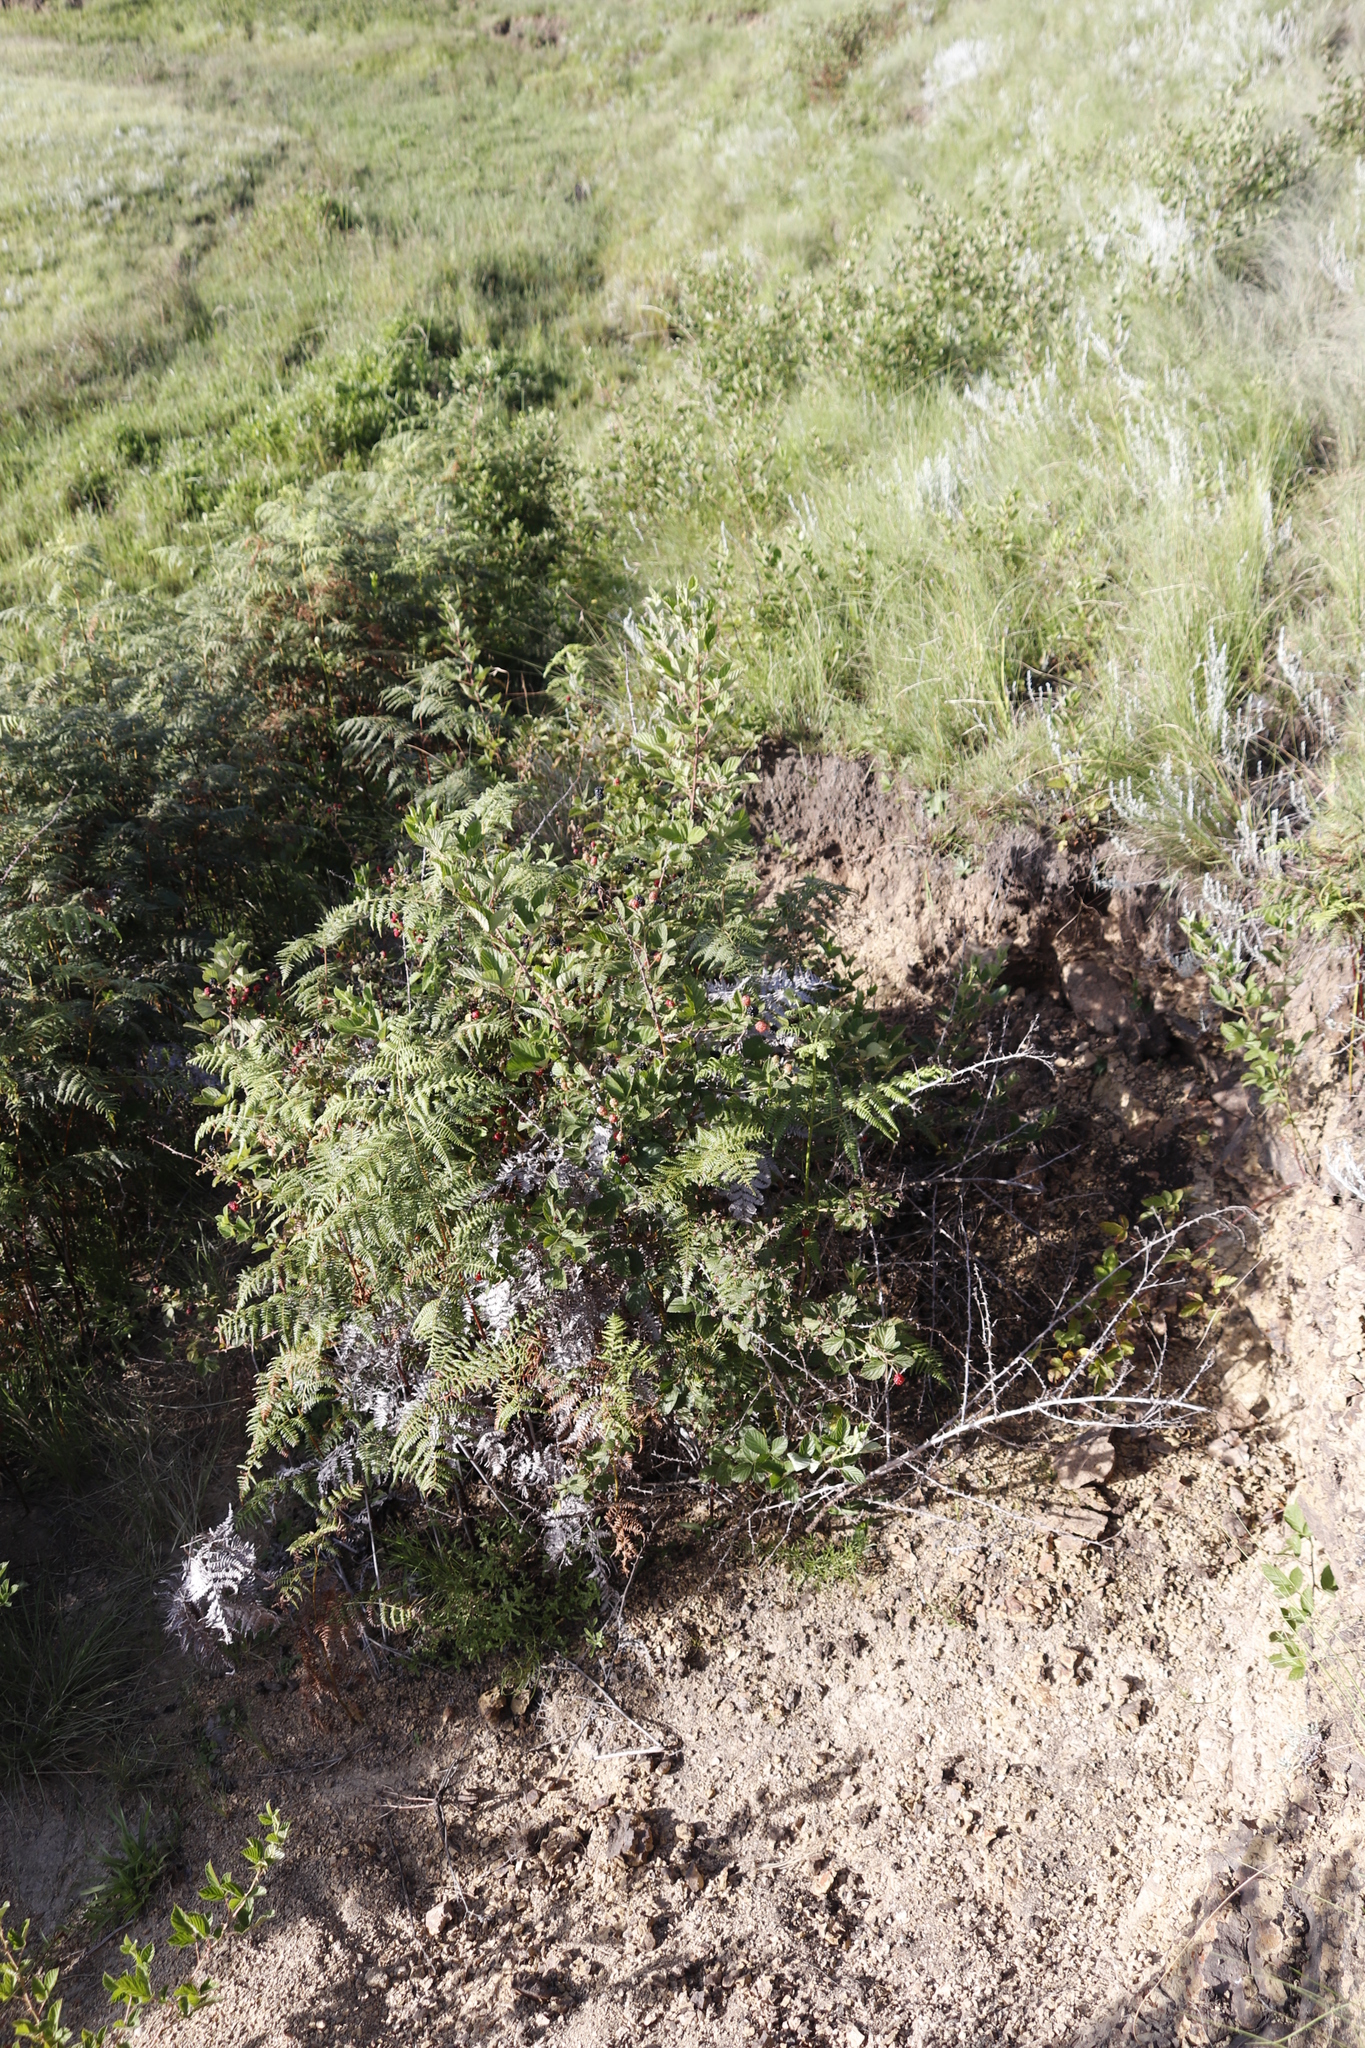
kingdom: Plantae
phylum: Tracheophyta
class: Magnoliopsida
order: Rosales
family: Rosaceae
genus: Rubus
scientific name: Rubus rigidus
